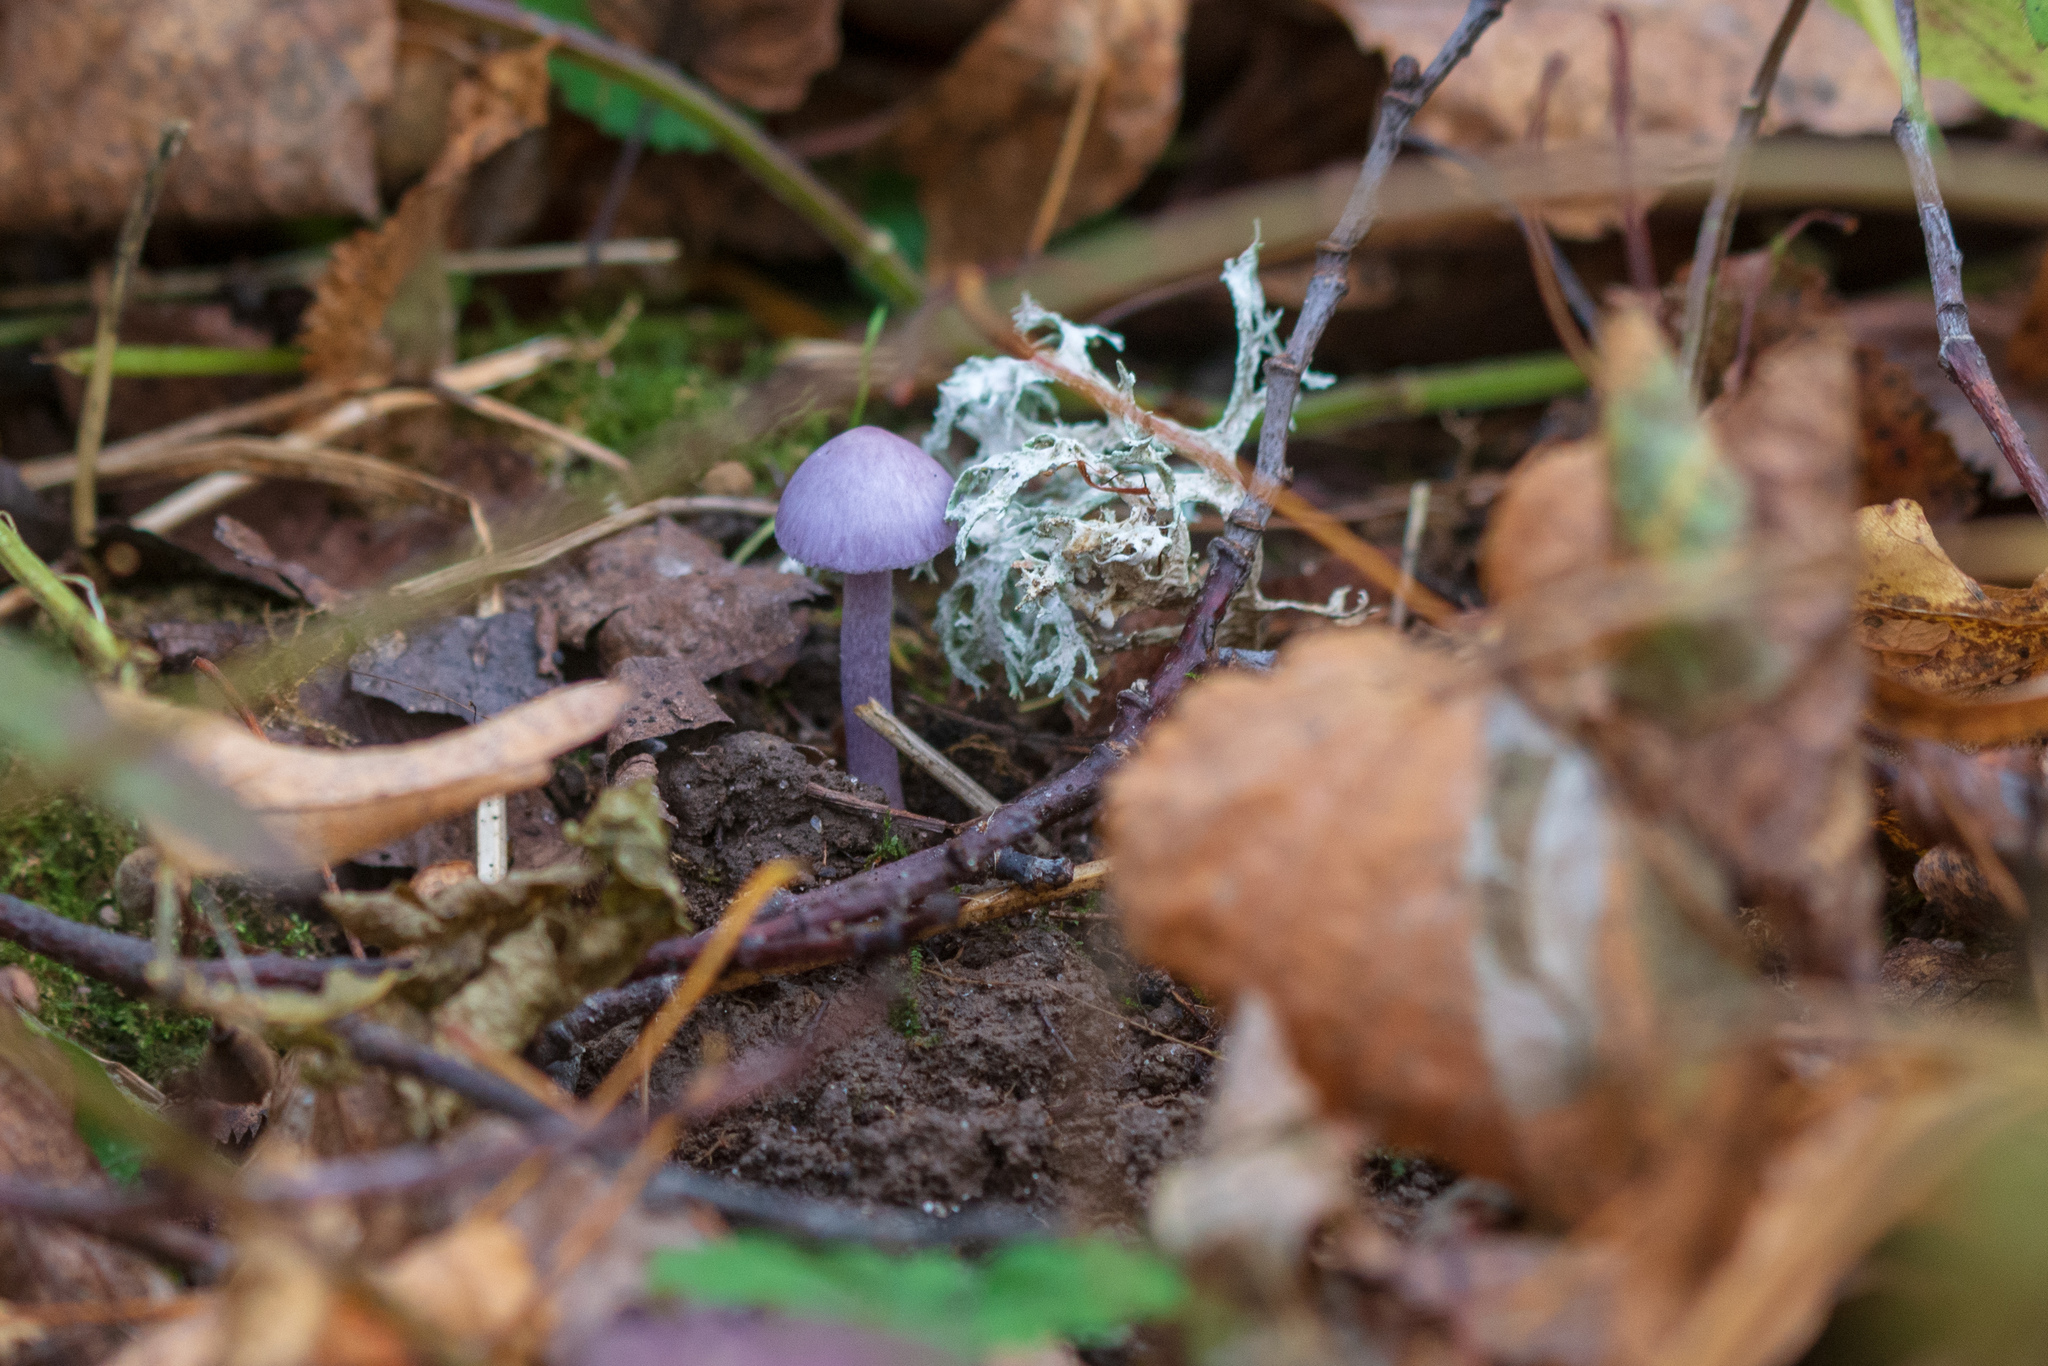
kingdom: Fungi
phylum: Basidiomycota
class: Agaricomycetes
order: Agaricales
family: Hydnangiaceae
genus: Laccaria
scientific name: Laccaria amethystina
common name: Amethyst deceiver
